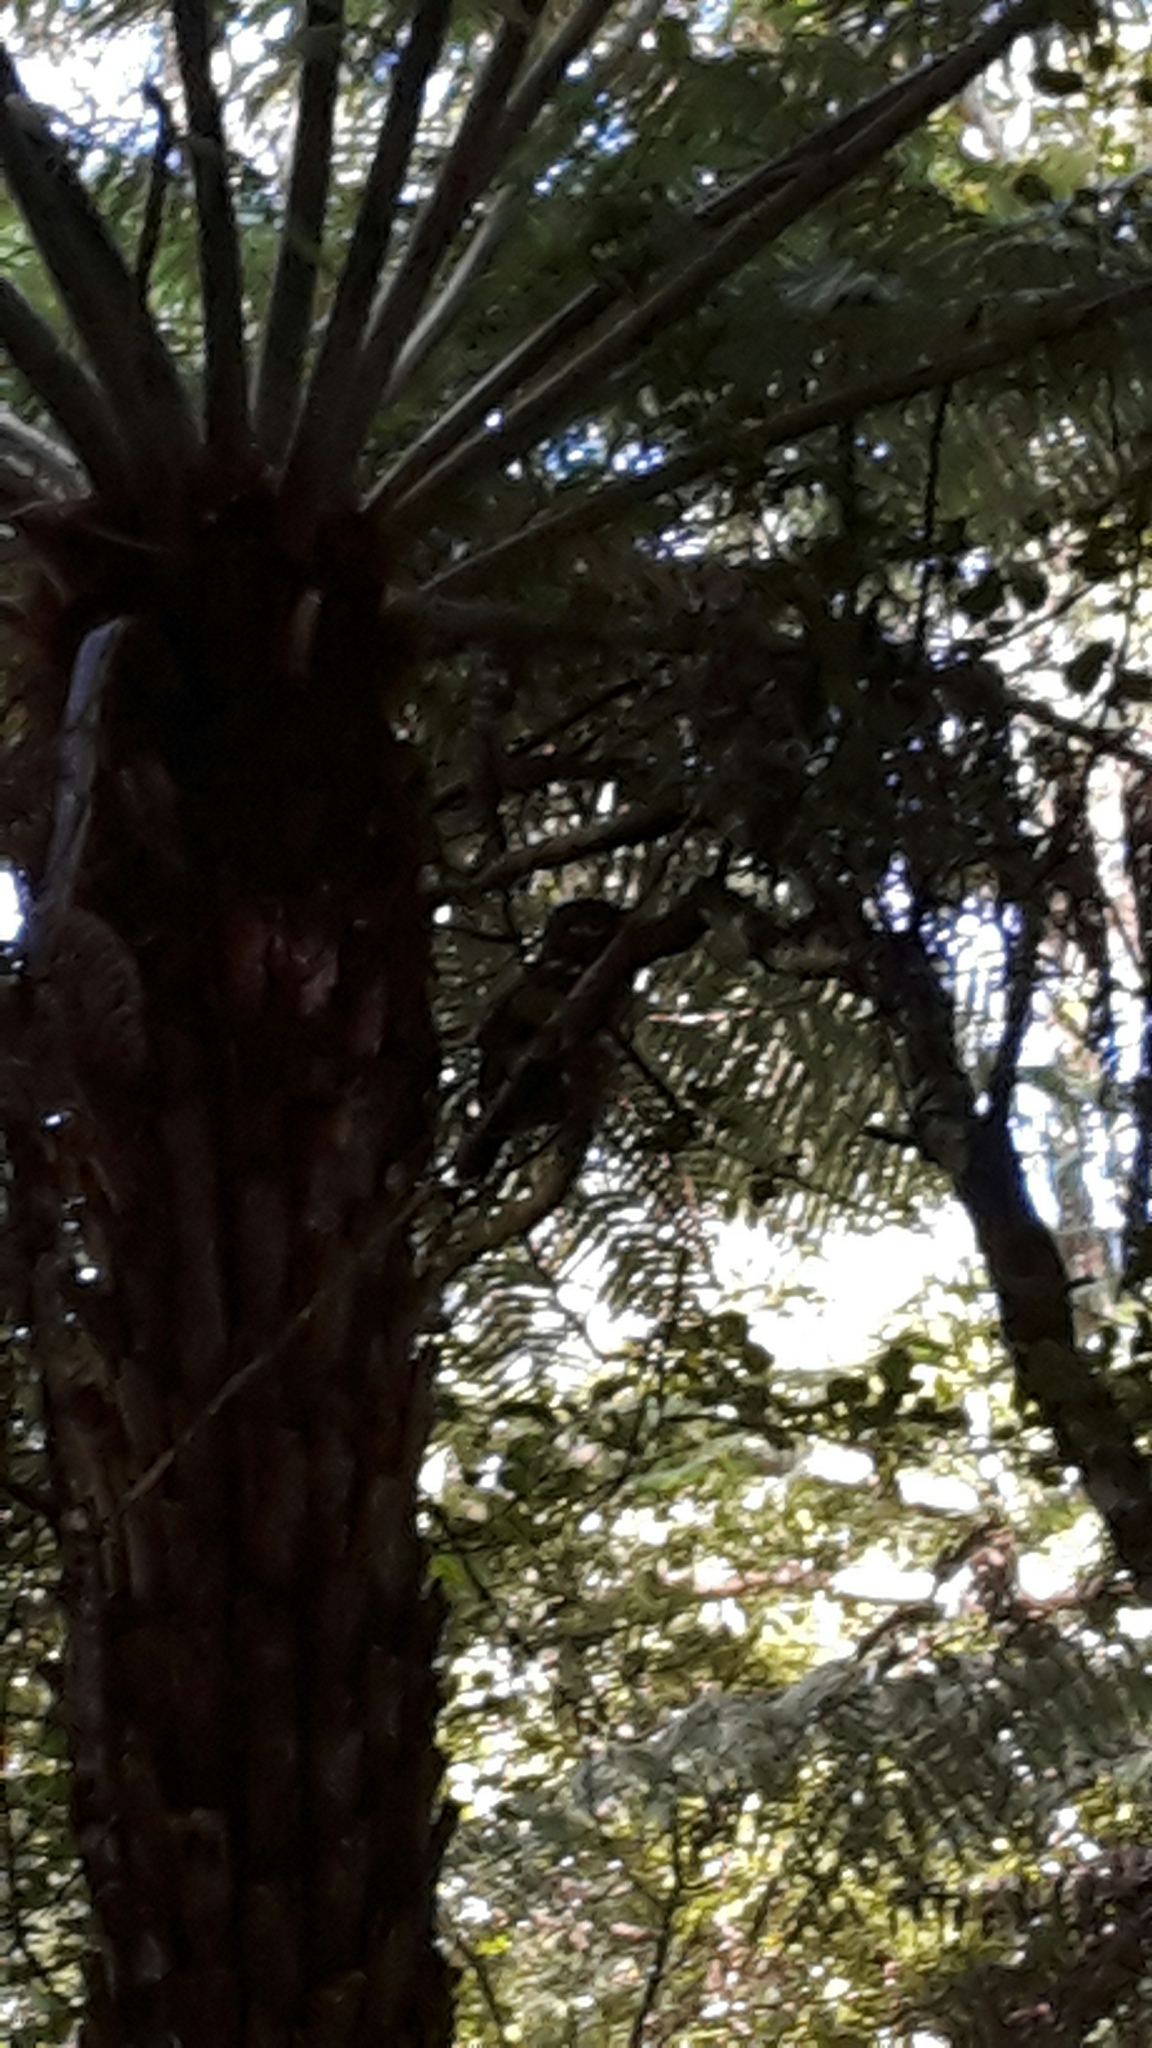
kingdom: Animalia
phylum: Chordata
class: Aves
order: Strigiformes
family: Strigidae
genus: Ninox
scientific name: Ninox novaeseelandiae
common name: Morepork
